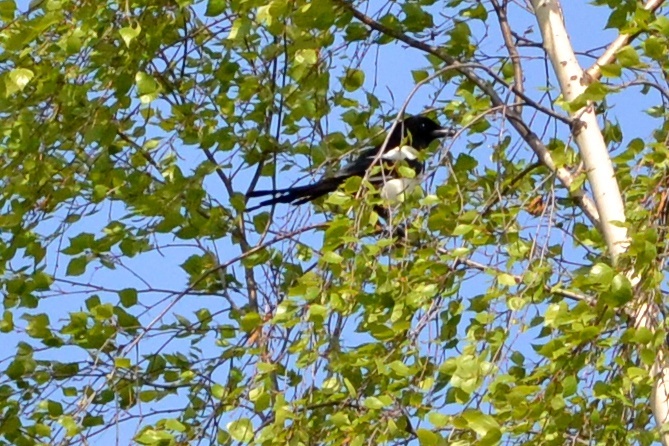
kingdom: Animalia
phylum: Chordata
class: Aves
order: Passeriformes
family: Corvidae
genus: Pica
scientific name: Pica pica
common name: Eurasian magpie
